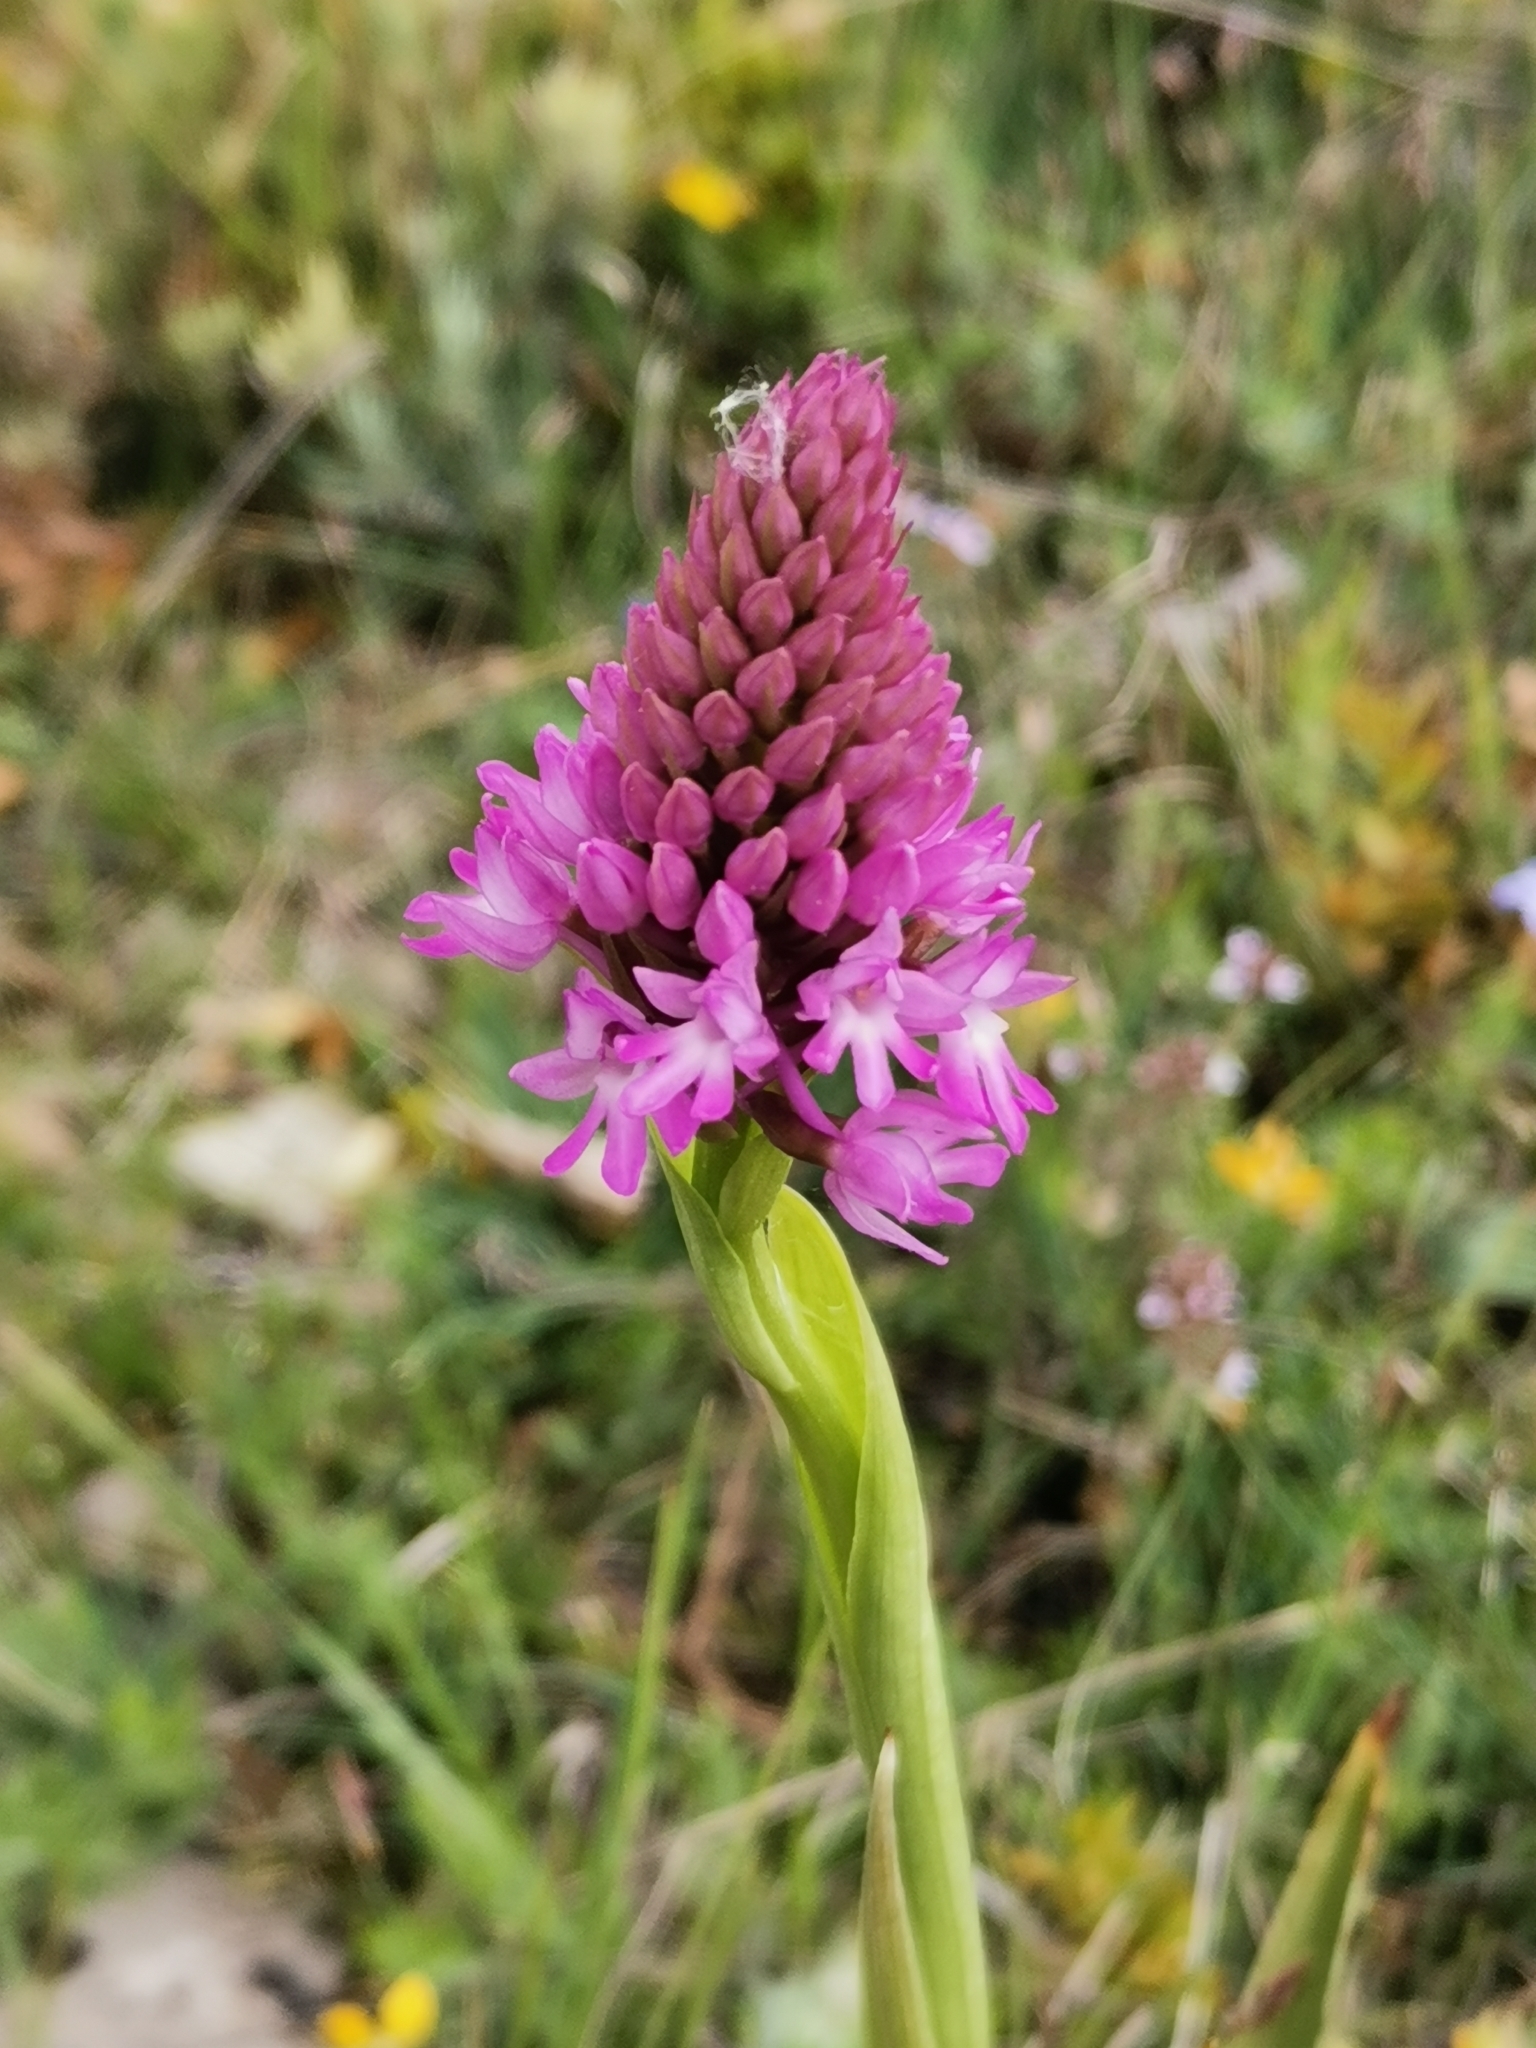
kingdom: Plantae
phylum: Tracheophyta
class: Liliopsida
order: Asparagales
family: Orchidaceae
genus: Anacamptis
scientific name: Anacamptis pyramidalis
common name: Pyramidal orchid
